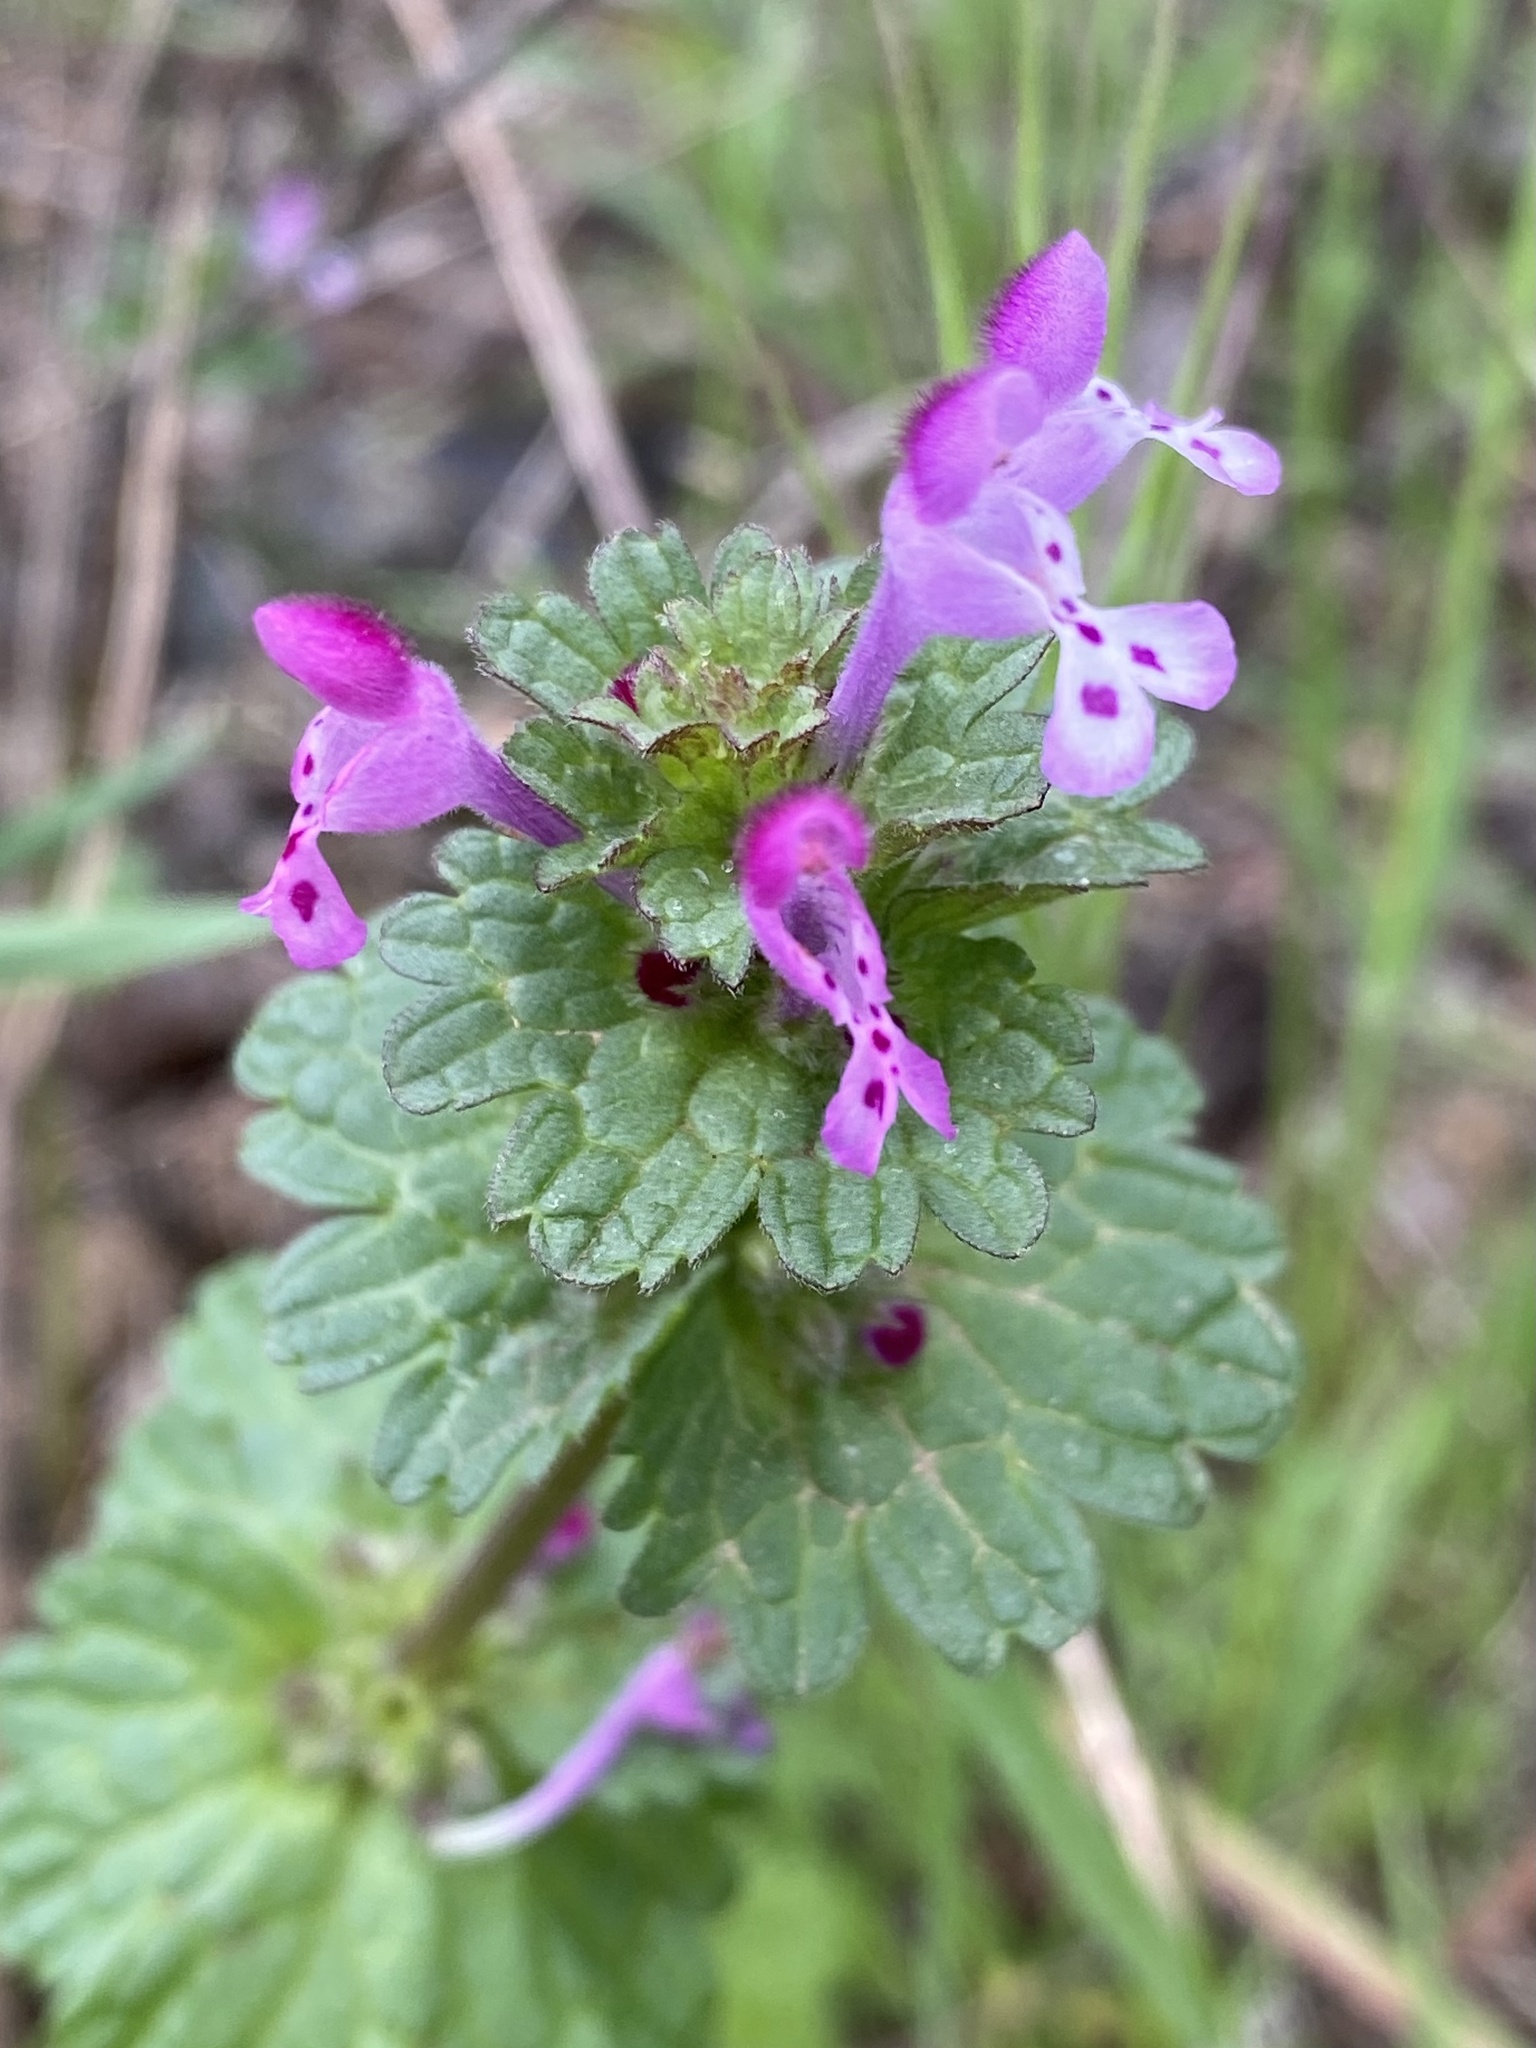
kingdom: Plantae
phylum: Tracheophyta
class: Magnoliopsida
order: Lamiales
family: Lamiaceae
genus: Lamium
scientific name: Lamium amplexicaule
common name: Henbit dead-nettle
